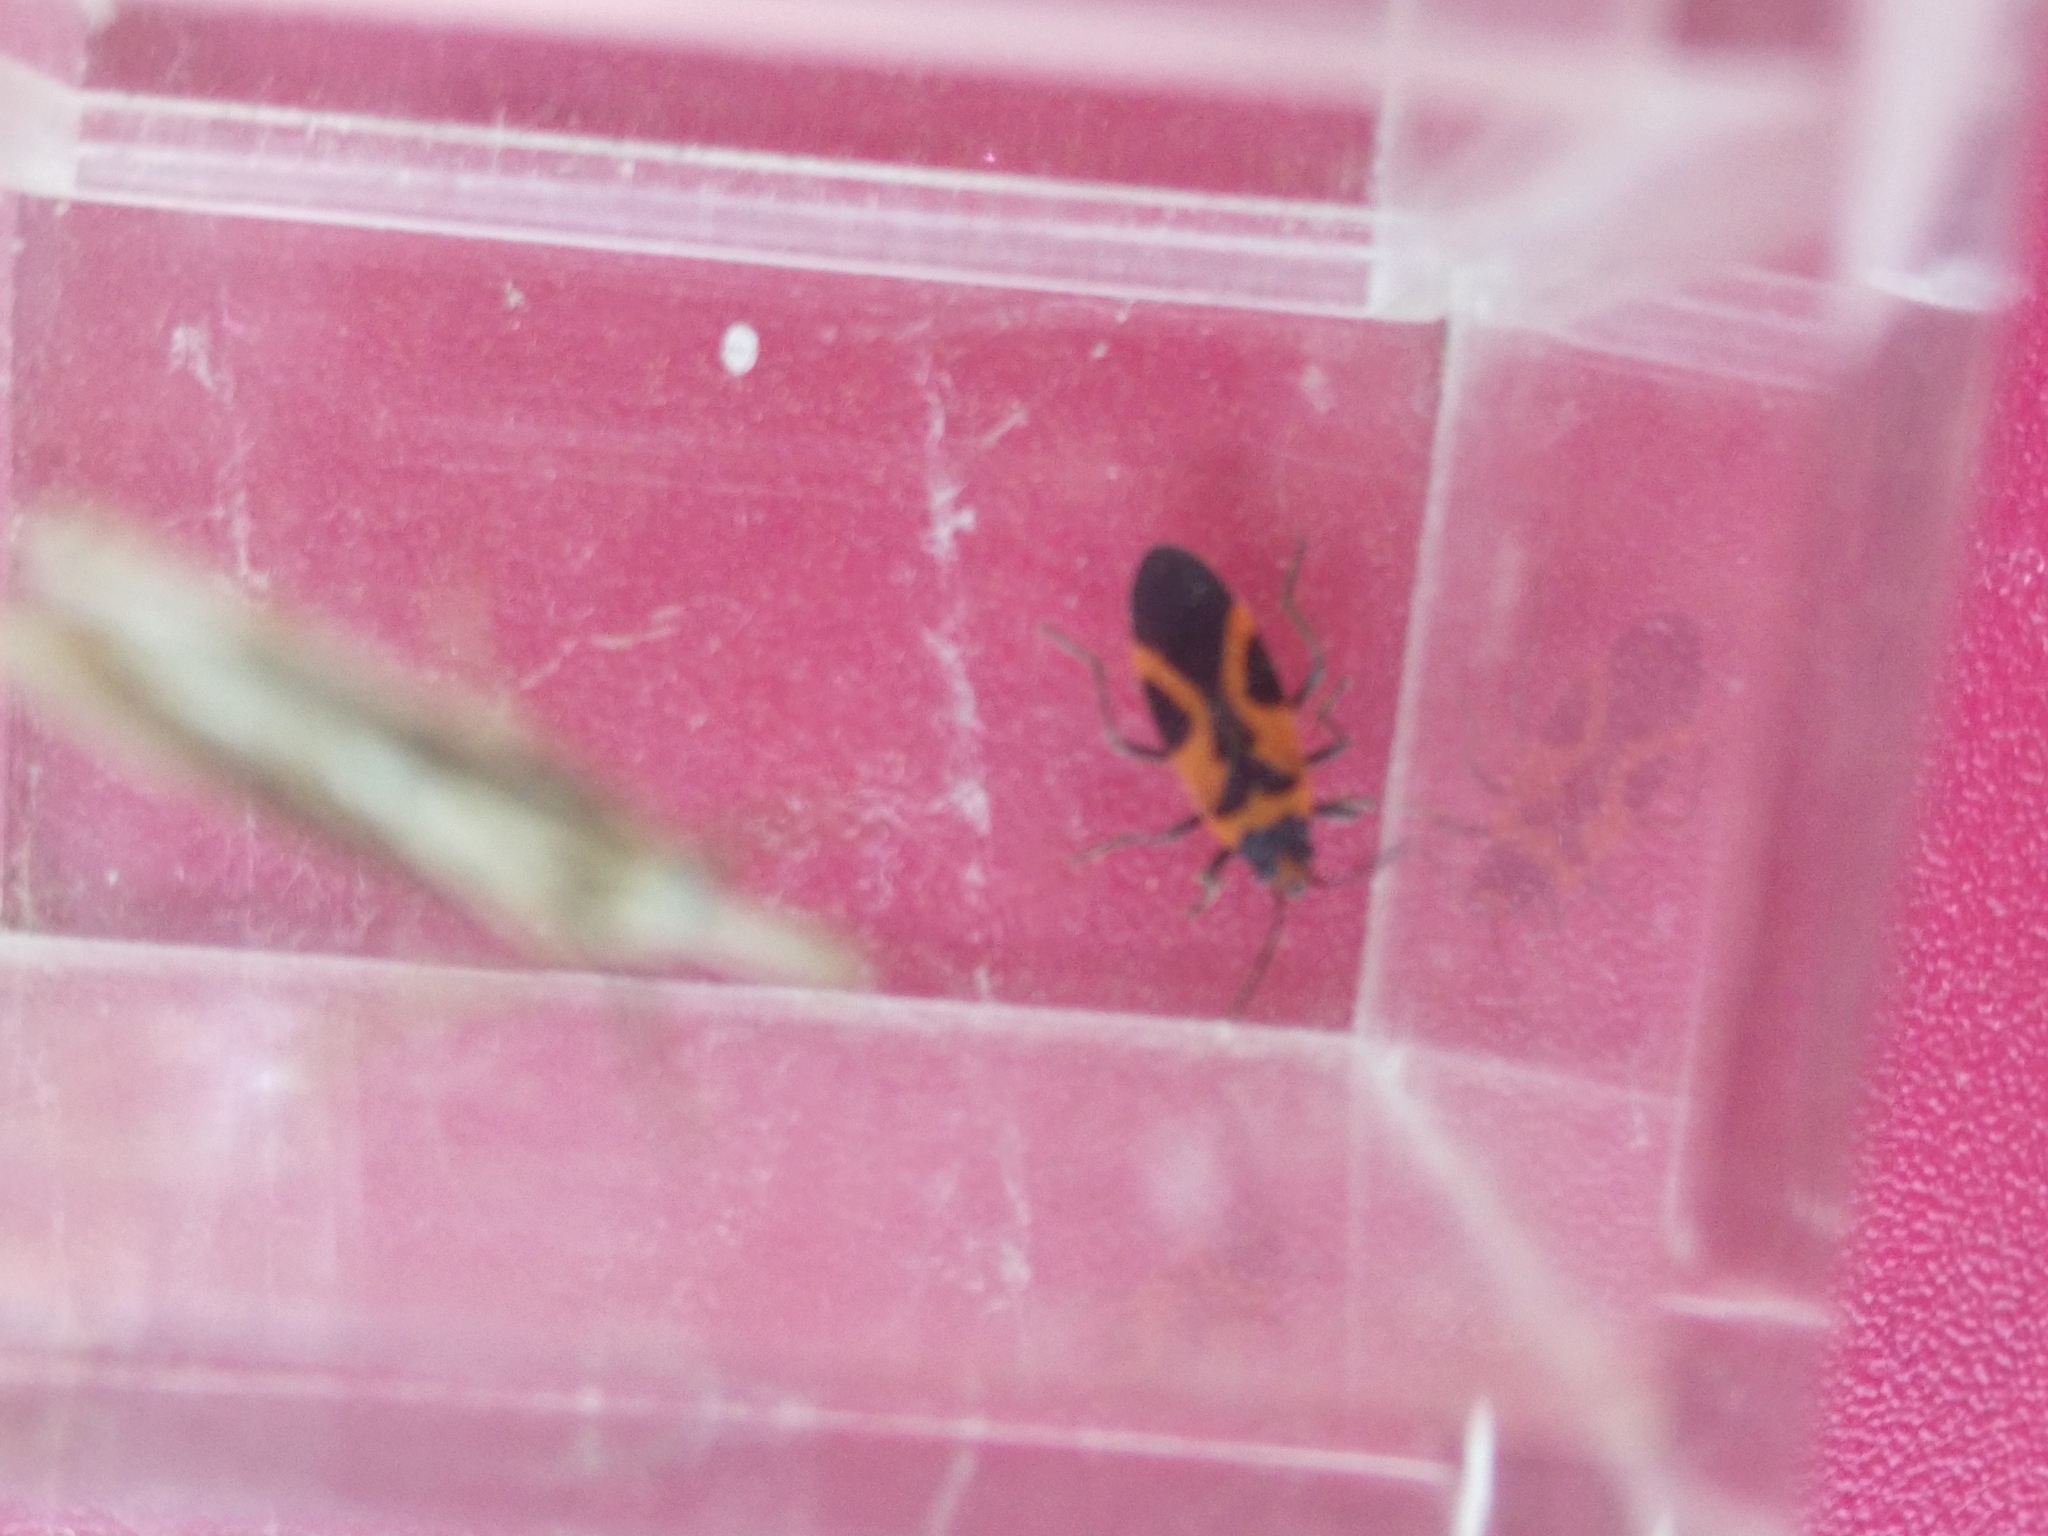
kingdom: Animalia
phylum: Arthropoda
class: Insecta
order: Hemiptera
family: Lygaeidae
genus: Lygaeus
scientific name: Lygaeus turcicus
